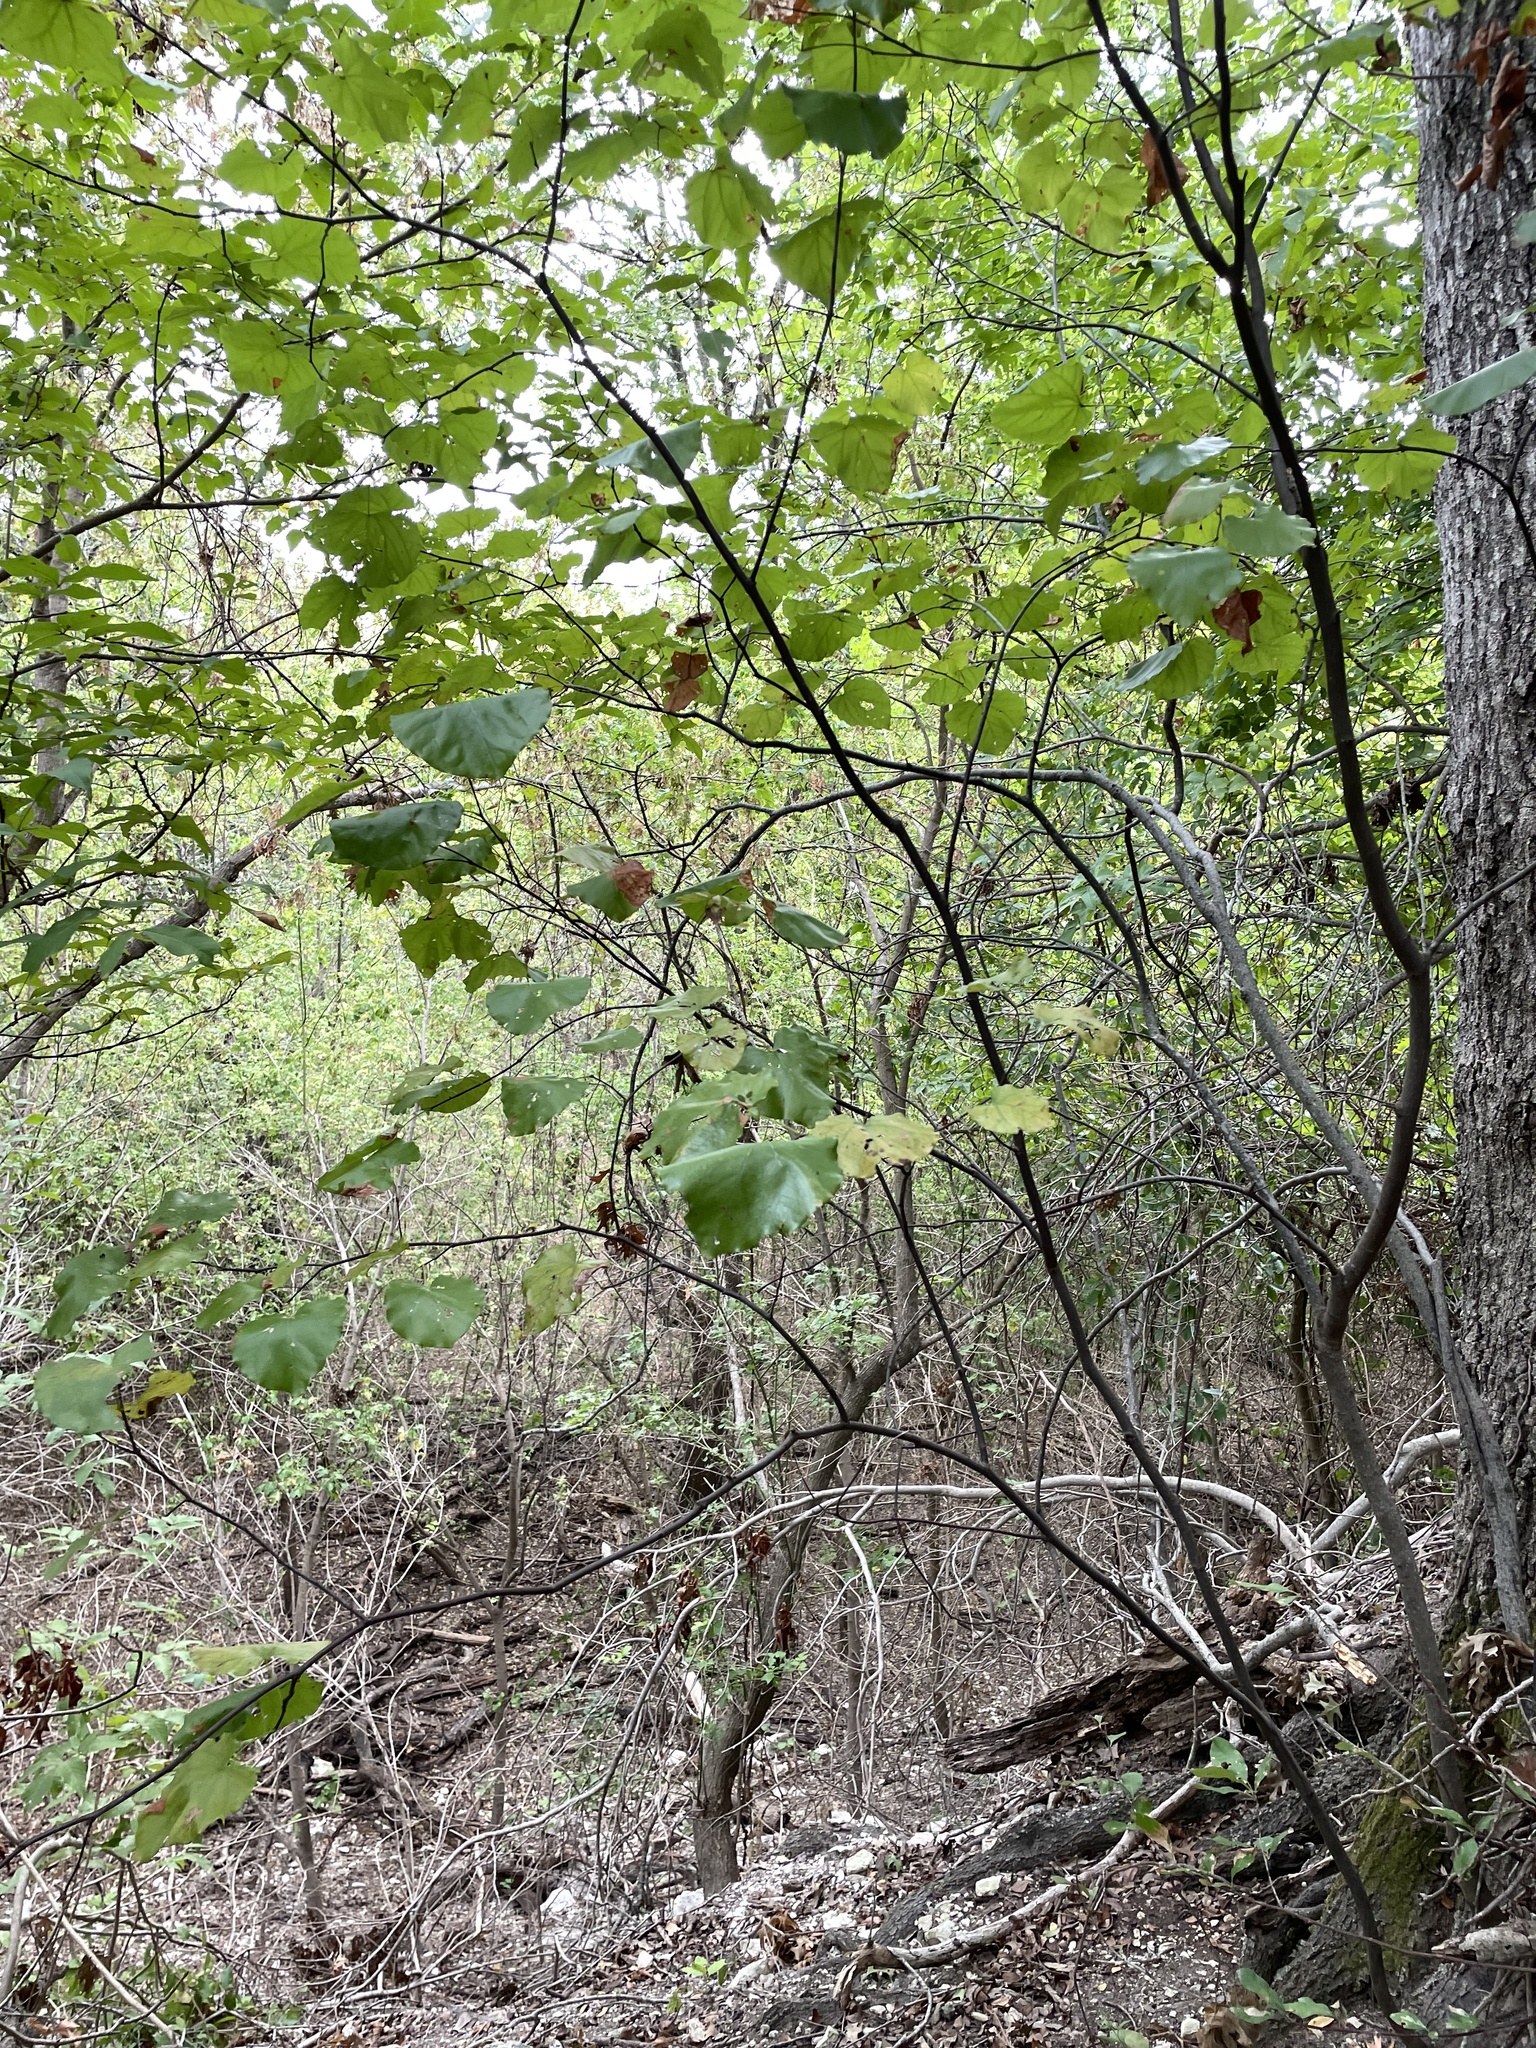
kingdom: Plantae
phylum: Tracheophyta
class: Magnoliopsida
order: Fabales
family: Fabaceae
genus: Cercis
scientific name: Cercis canadensis
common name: Eastern redbud
